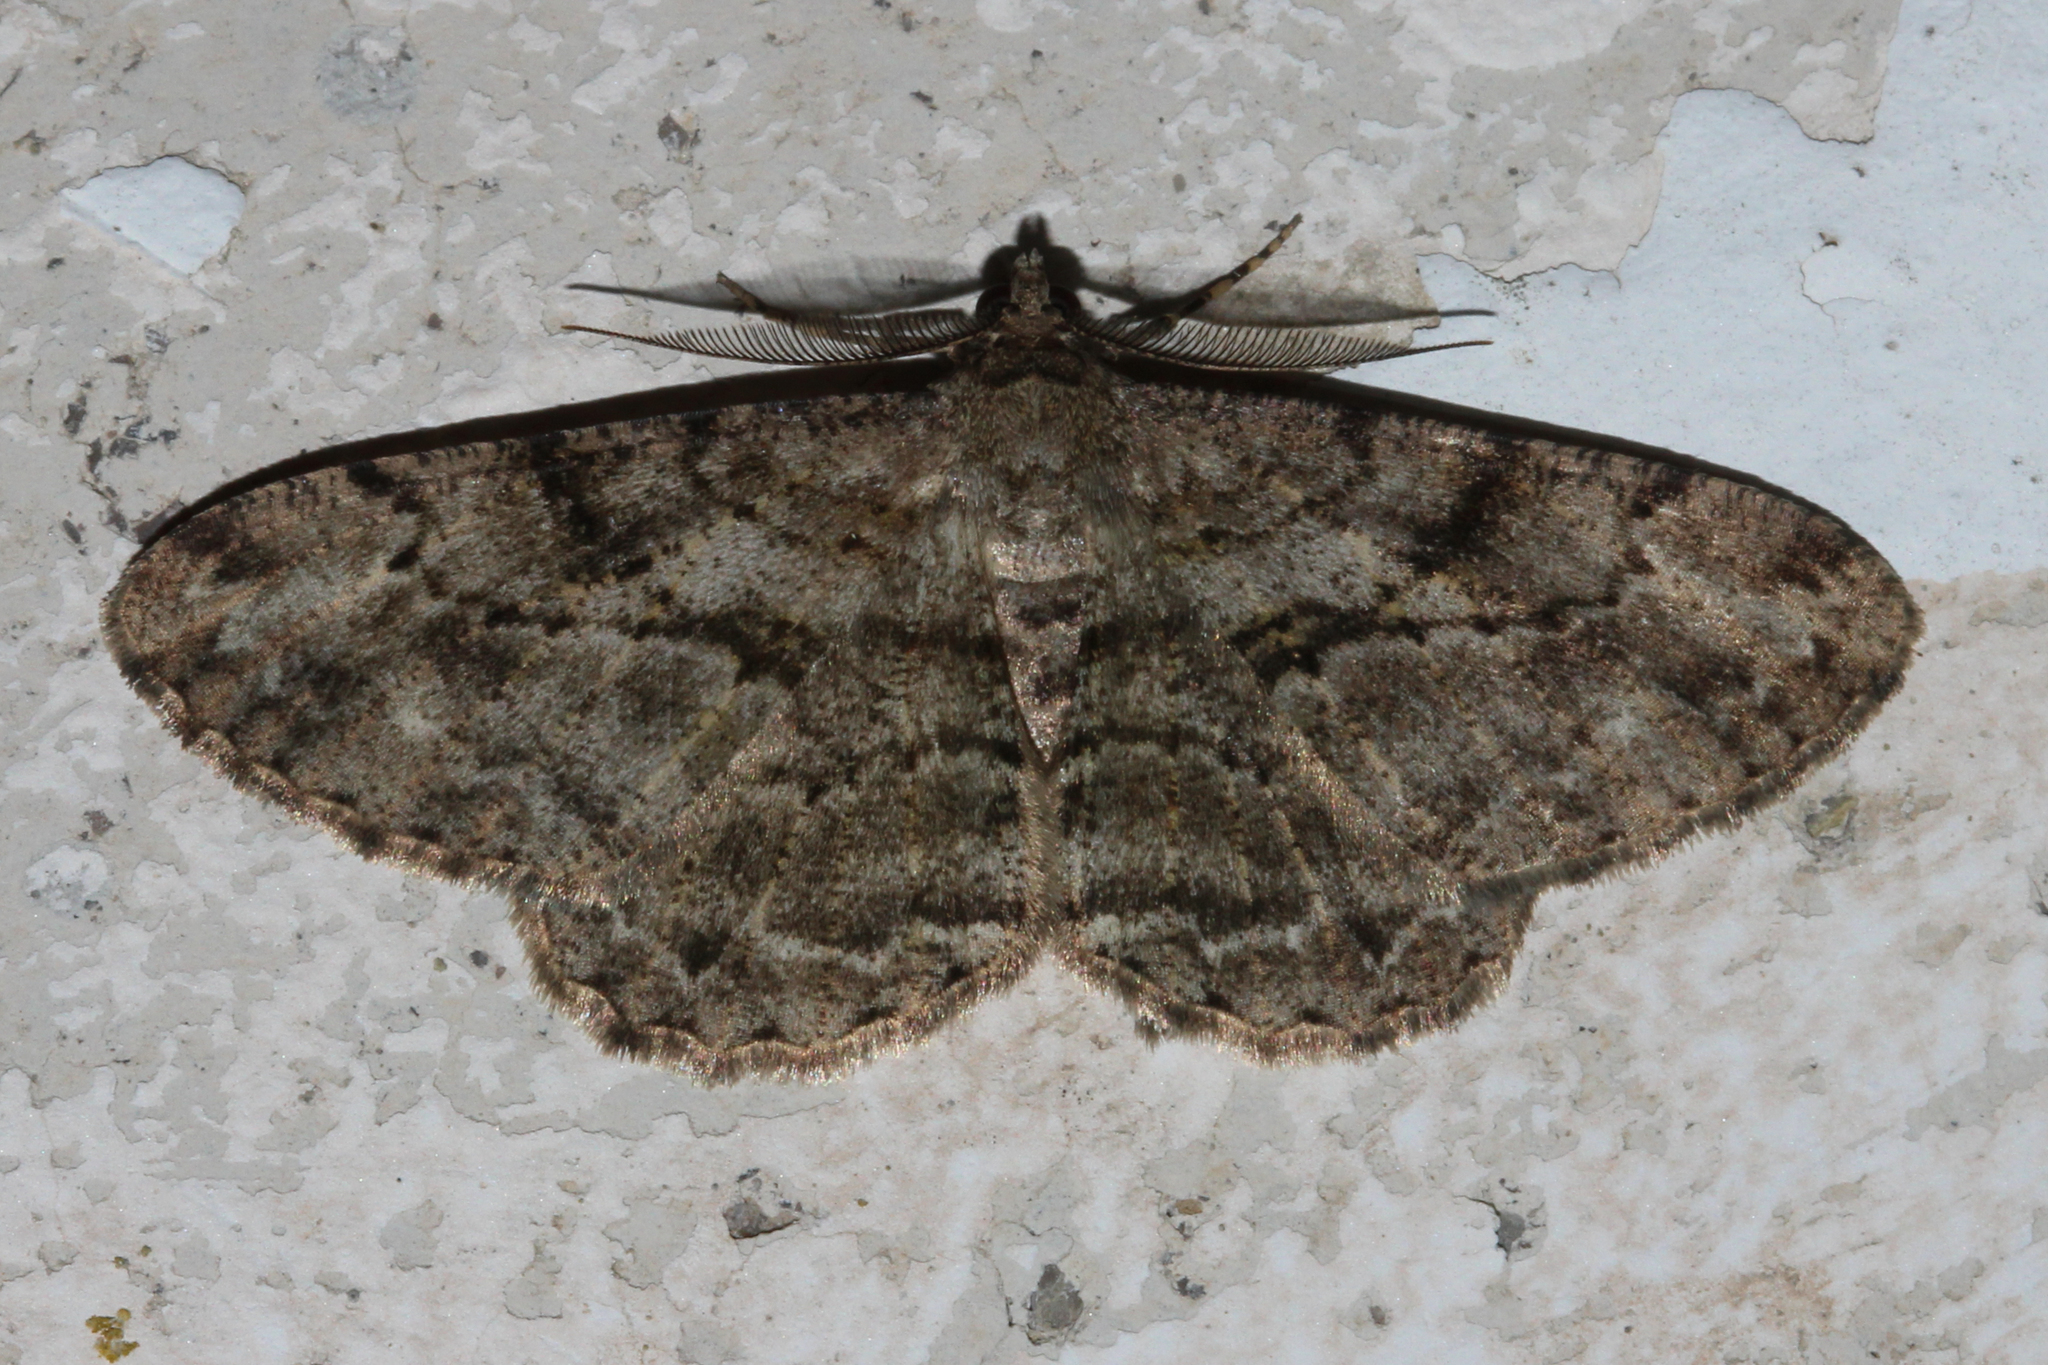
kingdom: Animalia
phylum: Arthropoda
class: Insecta
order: Lepidoptera
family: Geometridae
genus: Peribatodes
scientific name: Peribatodes rhomboidaria
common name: Willow beauty
